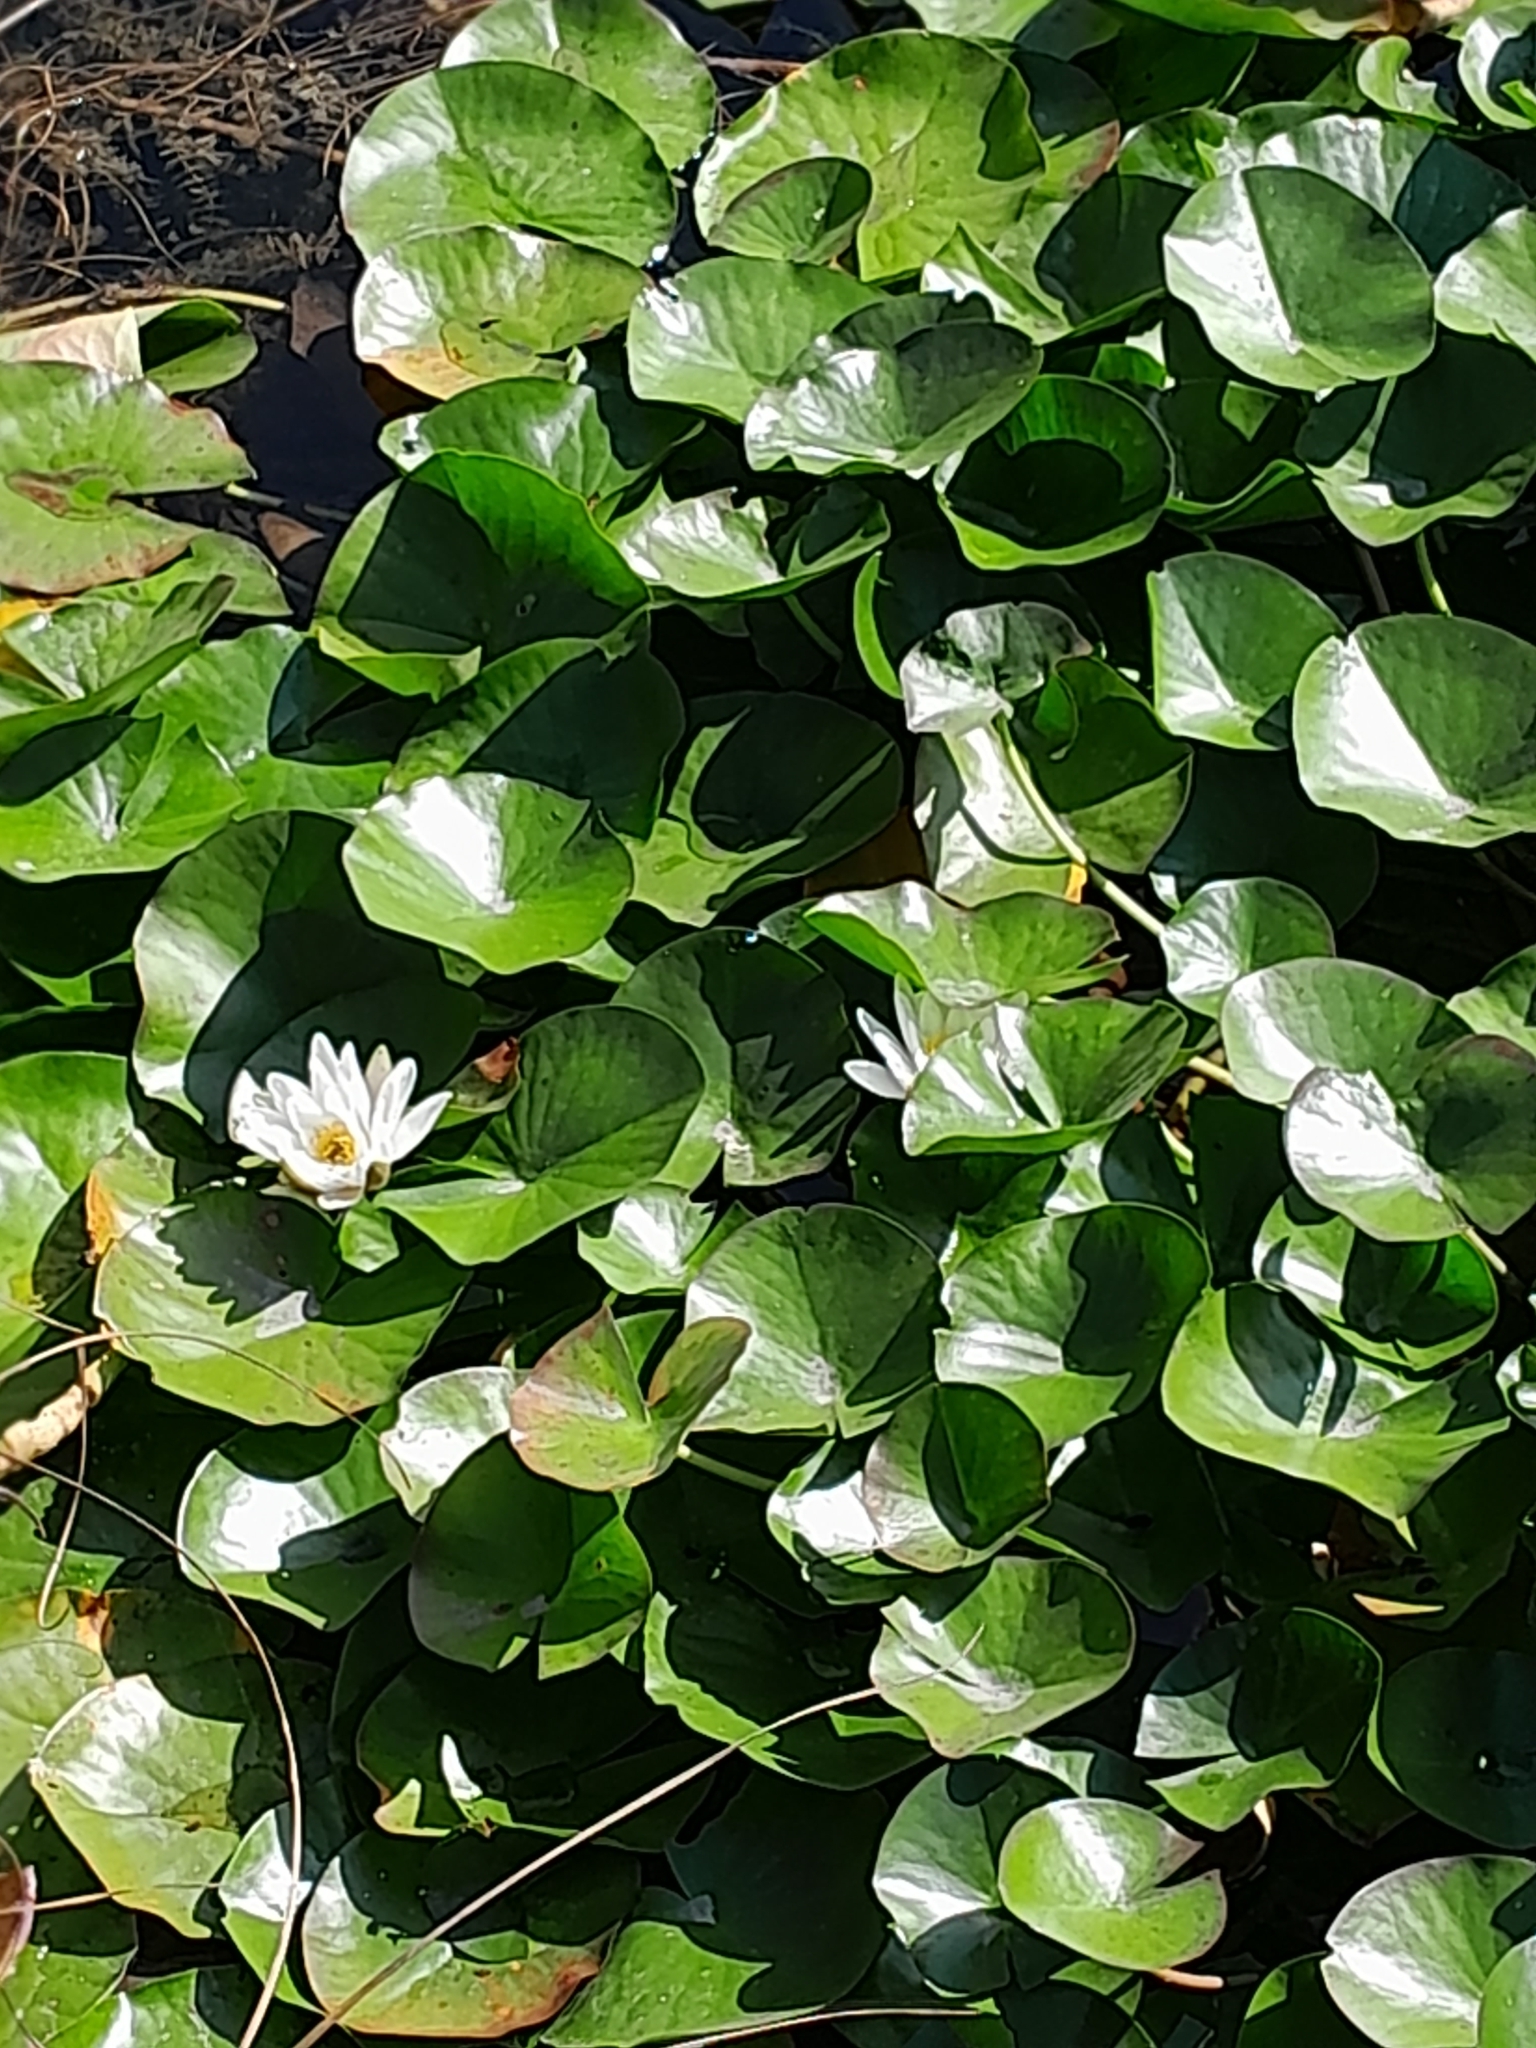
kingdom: Plantae
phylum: Tracheophyta
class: Magnoliopsida
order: Nymphaeales
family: Nymphaeaceae
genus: Nymphaea
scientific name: Nymphaea alba
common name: White water-lily
